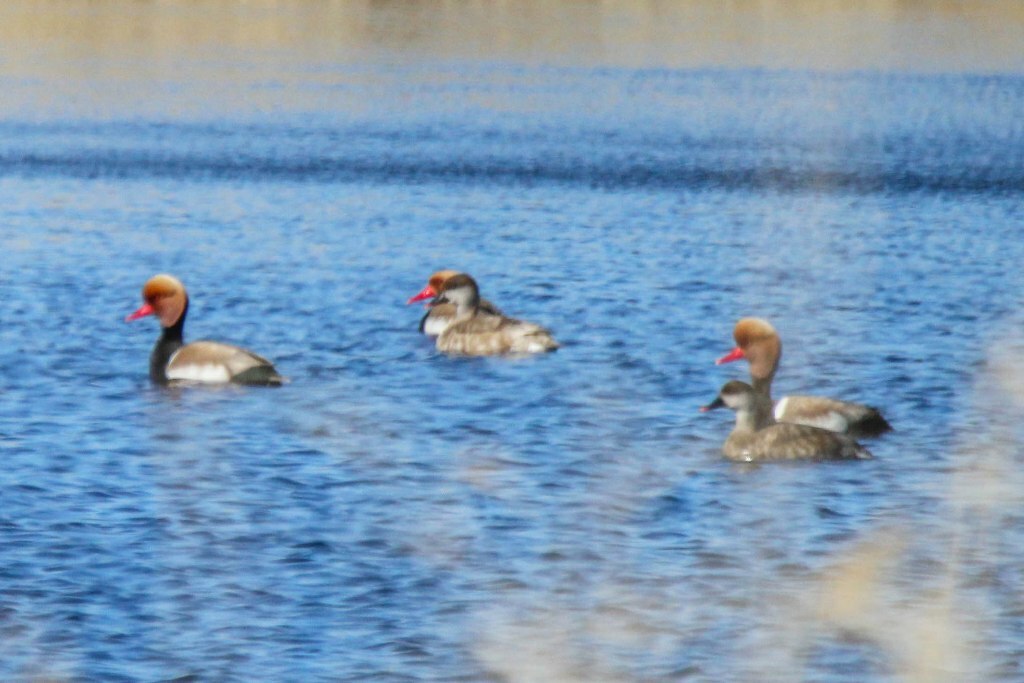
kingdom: Animalia
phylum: Chordata
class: Aves
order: Anseriformes
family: Anatidae
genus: Netta
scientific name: Netta rufina
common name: Red-crested pochard
